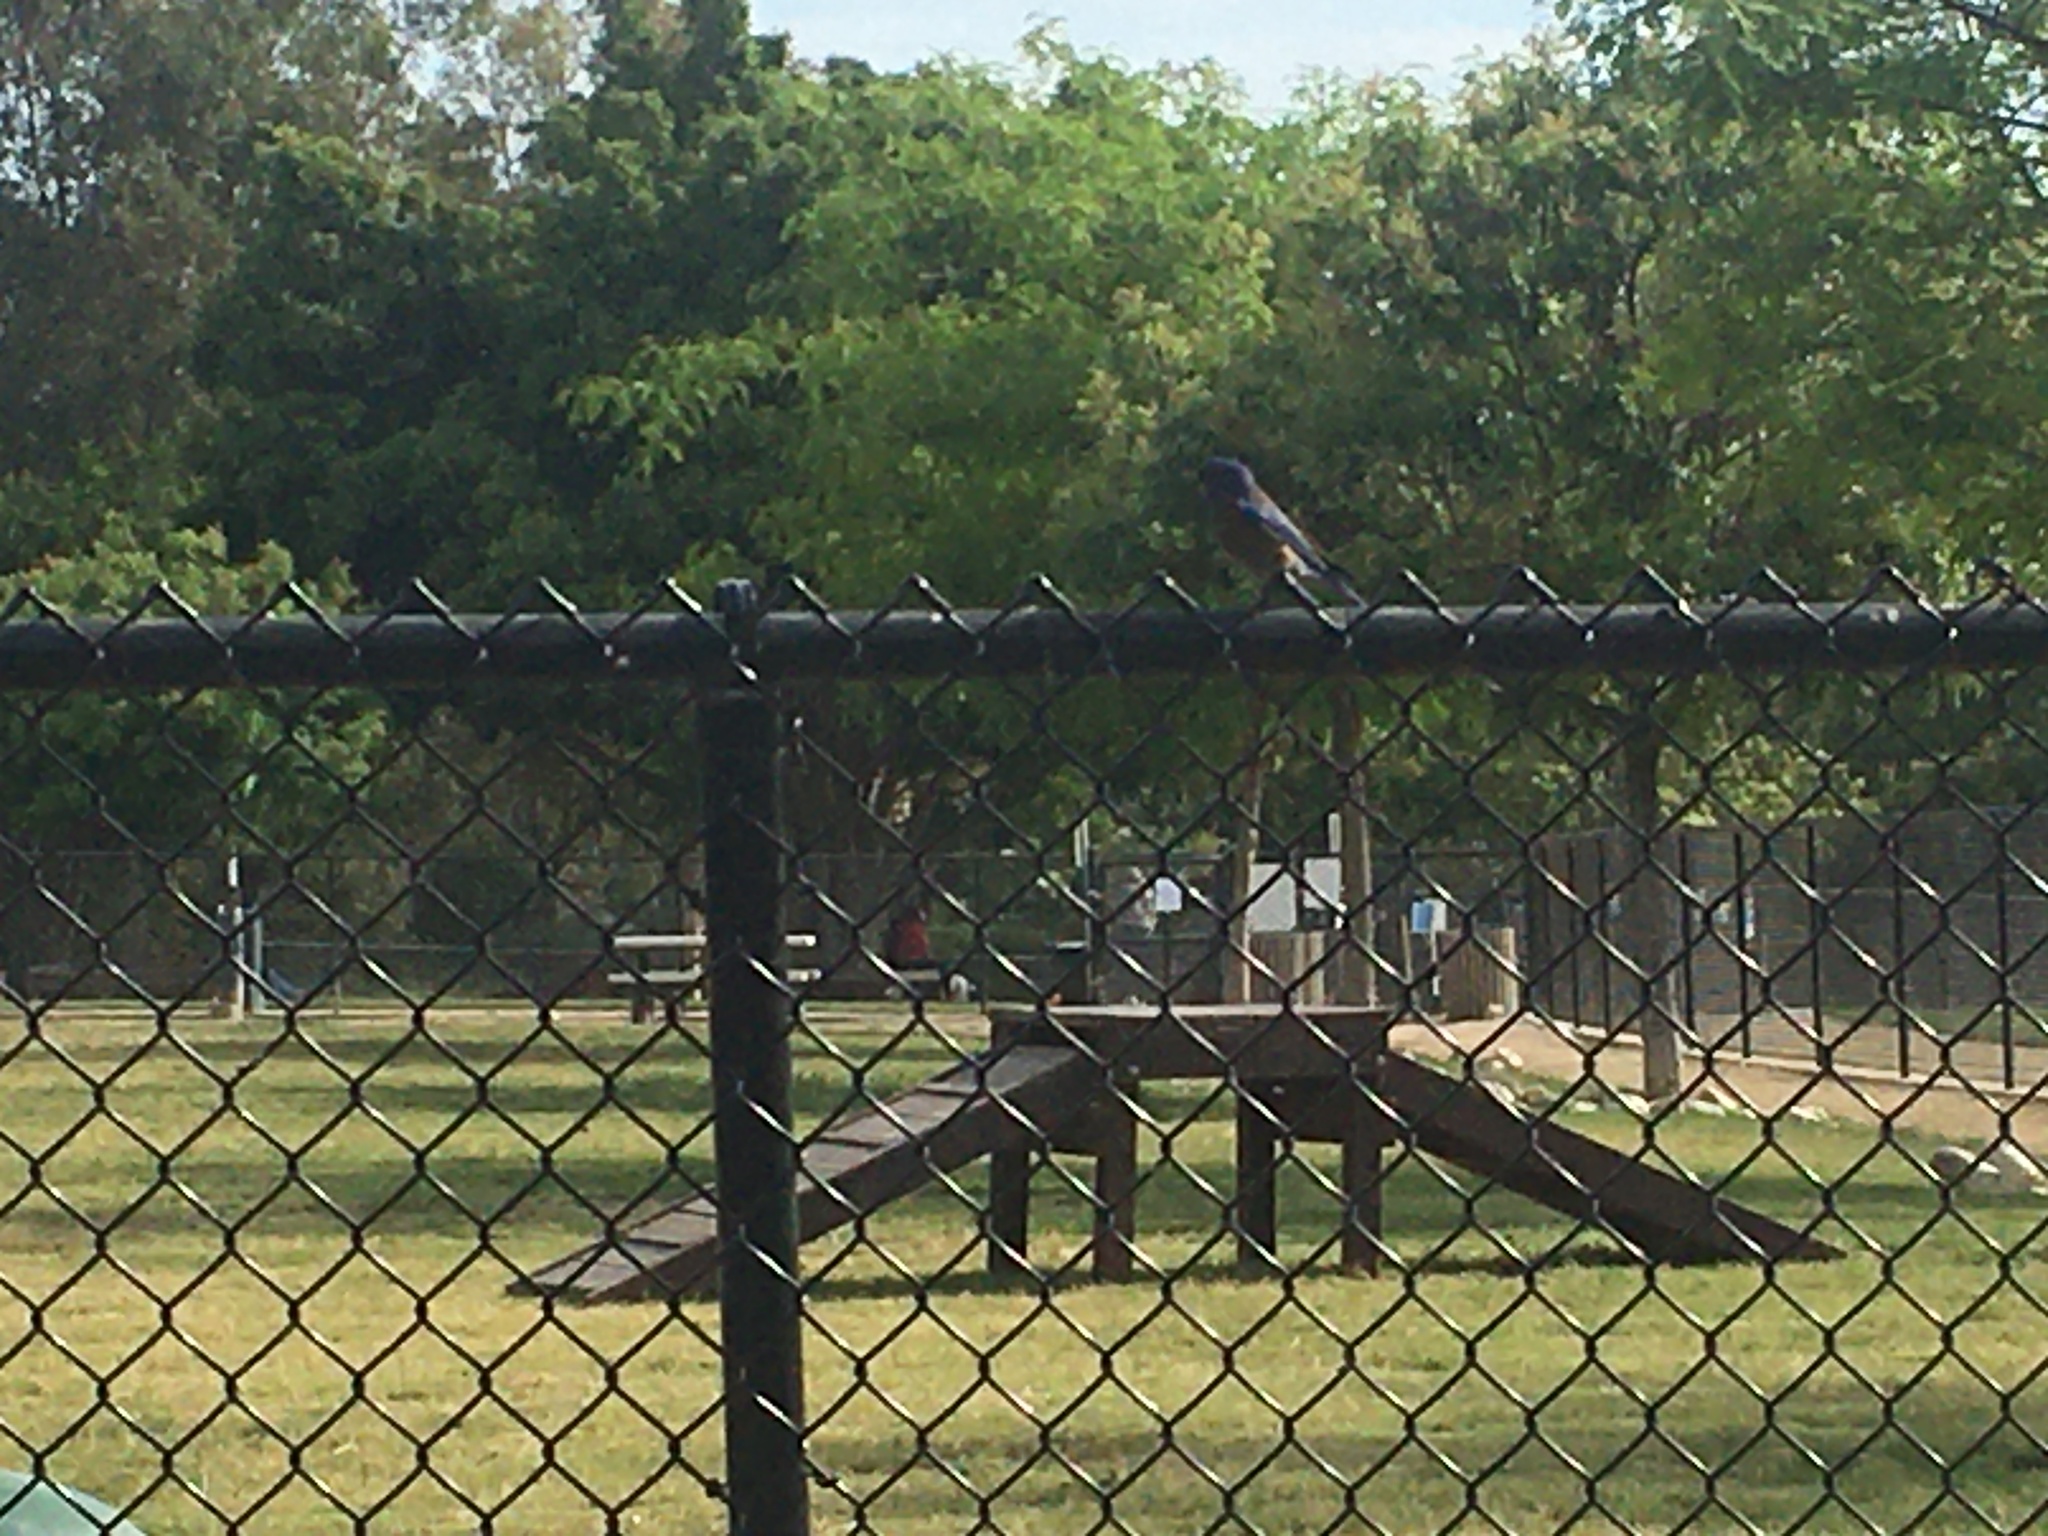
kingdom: Animalia
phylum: Chordata
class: Aves
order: Passeriformes
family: Turdidae
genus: Sialia
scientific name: Sialia mexicana
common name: Western bluebird
